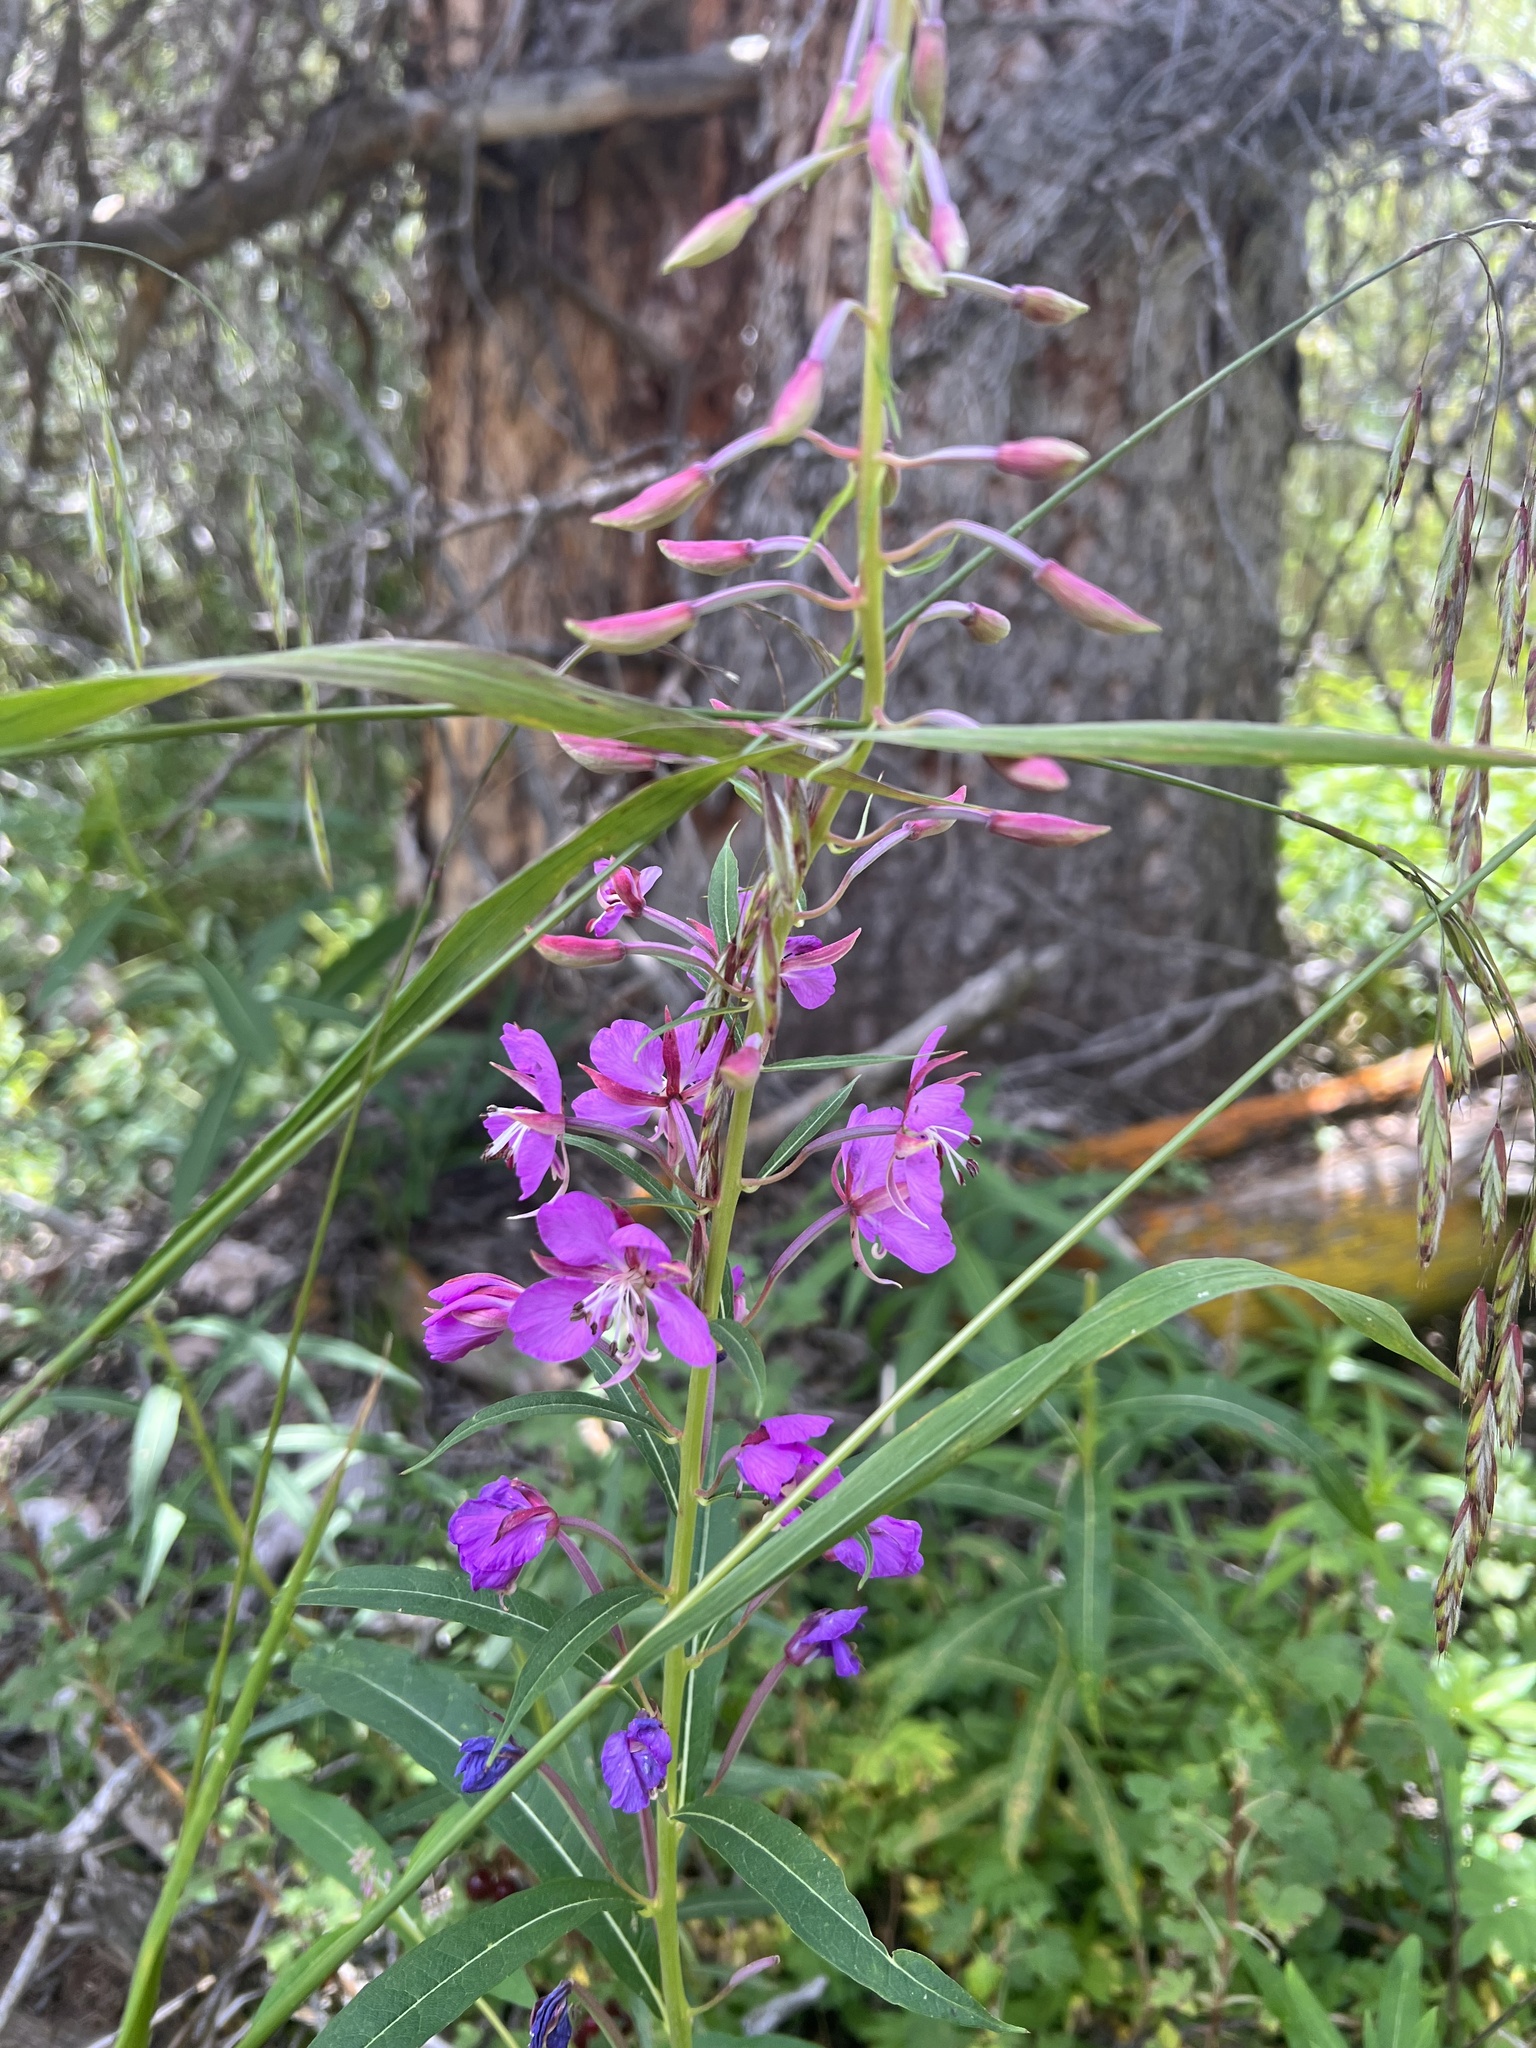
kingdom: Plantae
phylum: Tracheophyta
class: Magnoliopsida
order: Myrtales
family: Onagraceae
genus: Chamaenerion
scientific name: Chamaenerion angustifolium
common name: Fireweed
